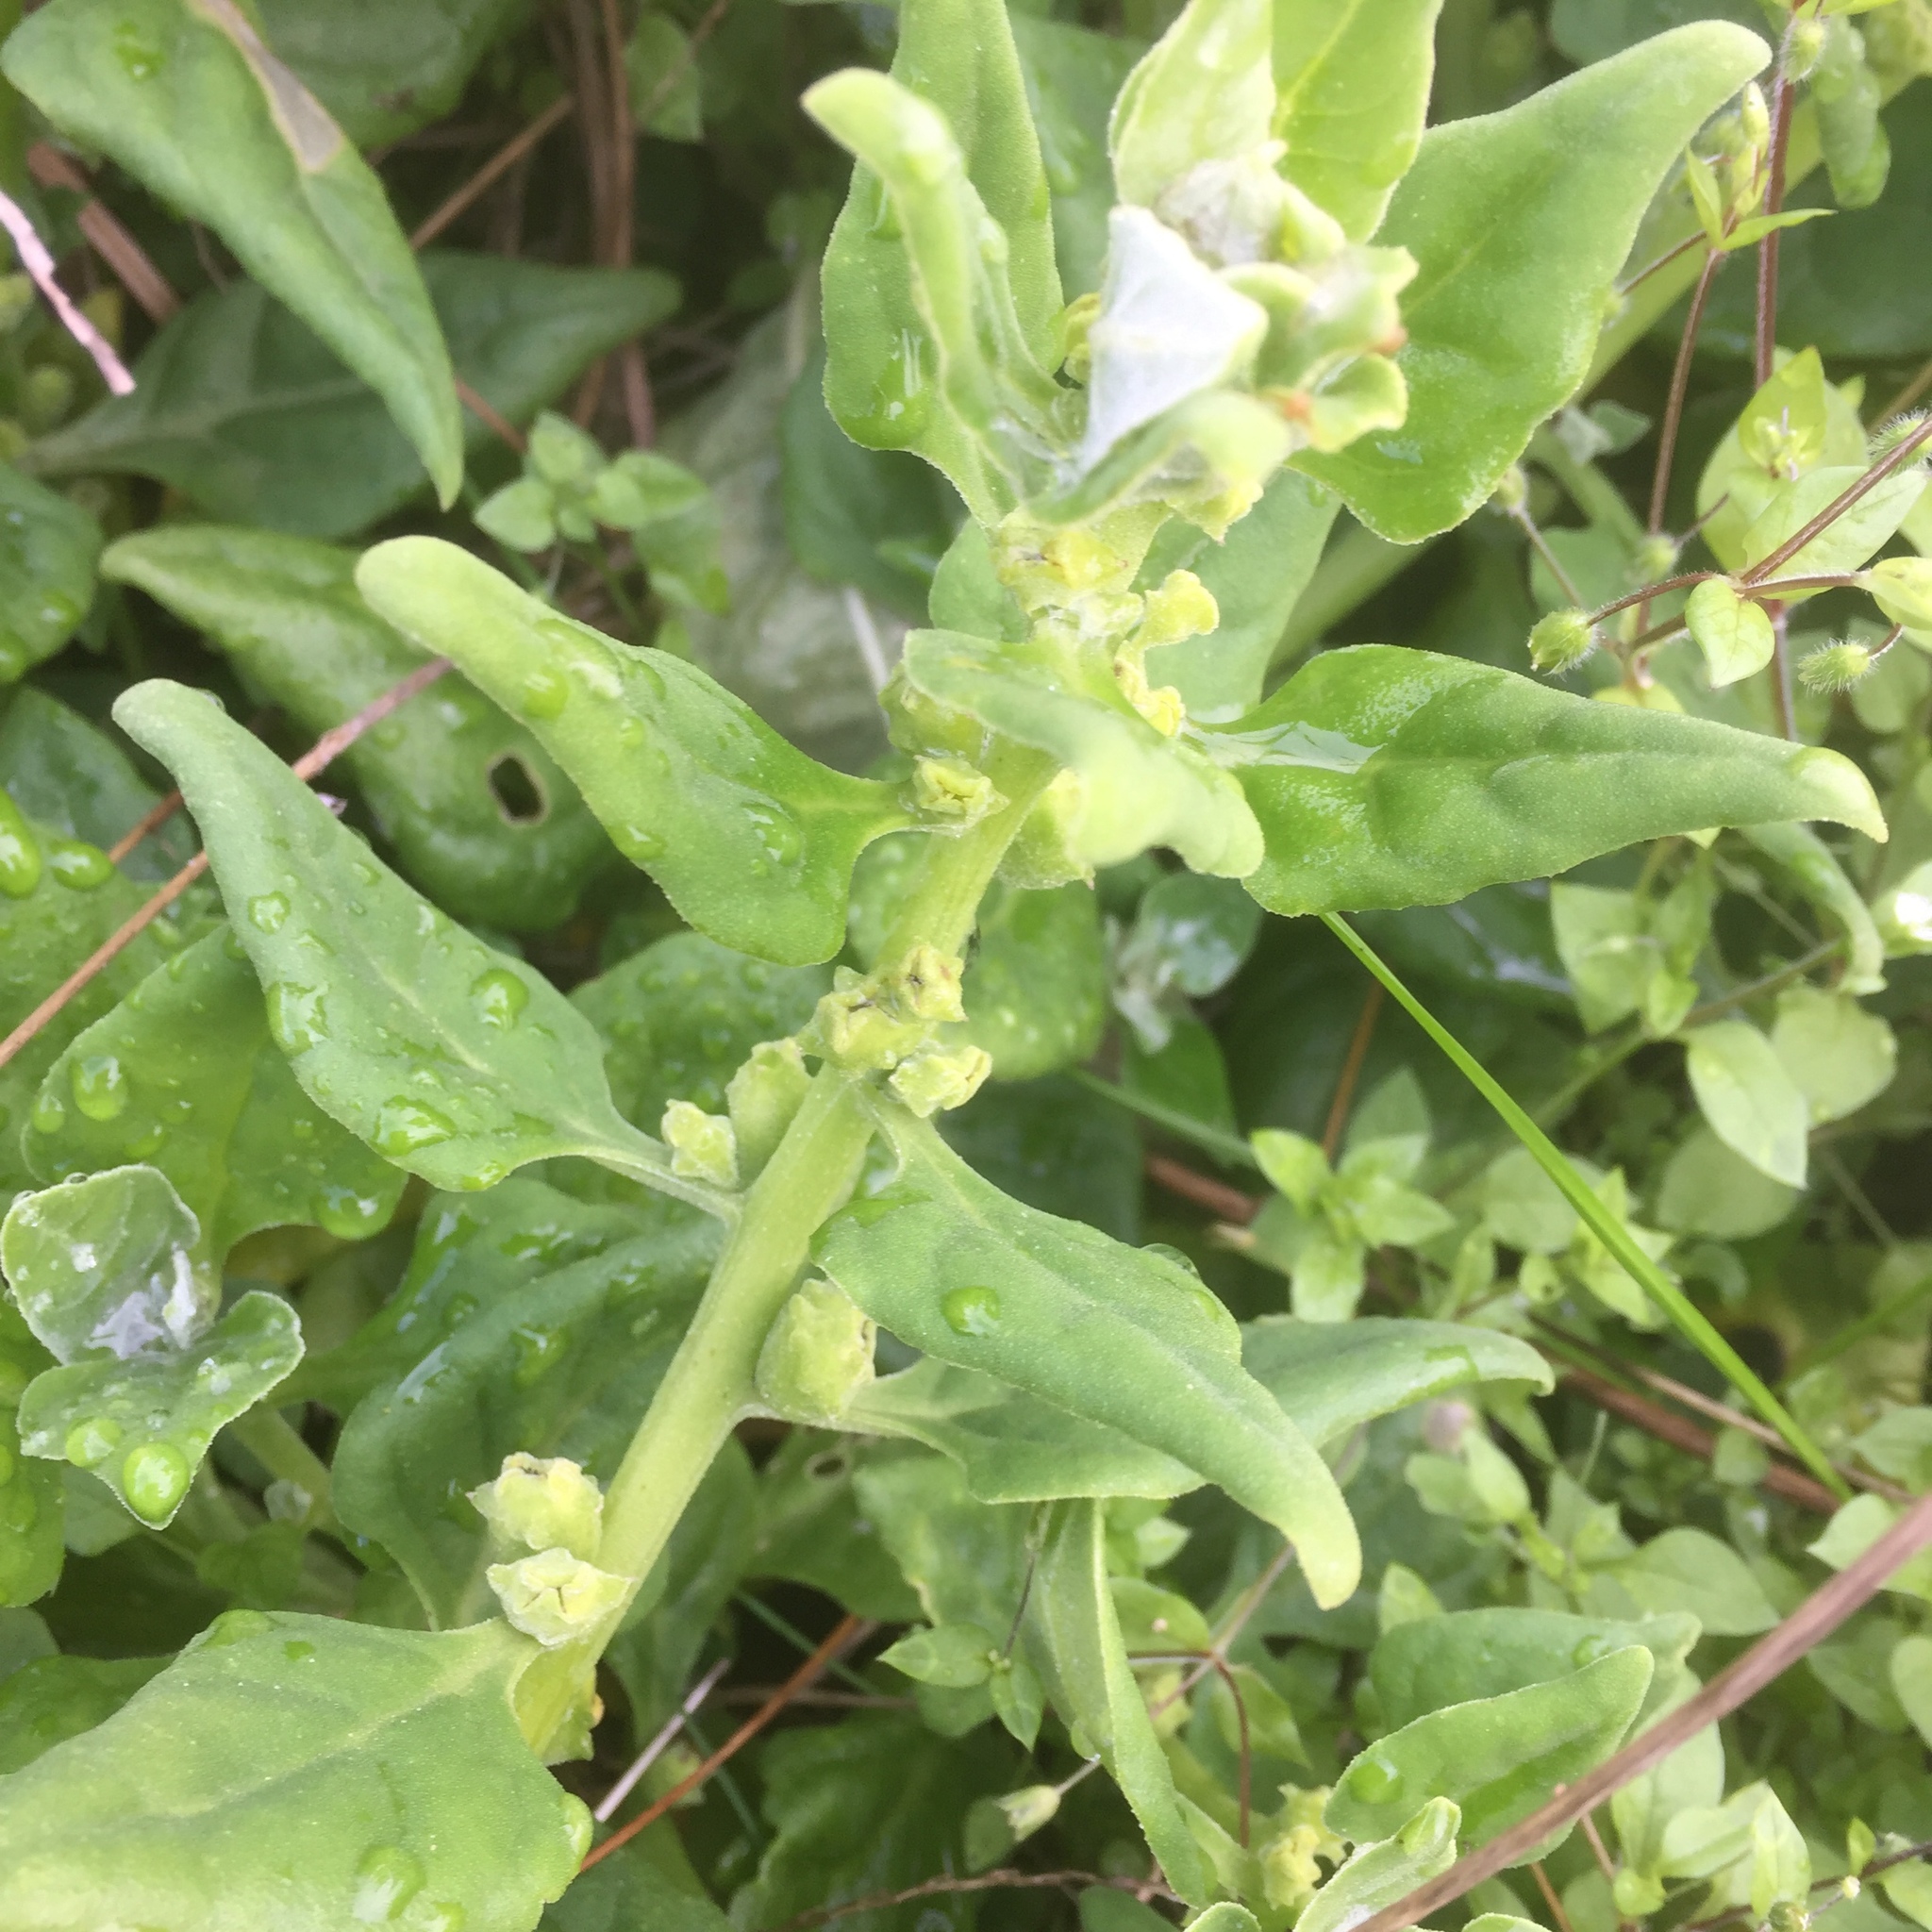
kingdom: Plantae
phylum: Tracheophyta
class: Magnoliopsida
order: Caryophyllales
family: Aizoaceae
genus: Tetragonia
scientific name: Tetragonia tetragonoides
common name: New zealand-spinach
